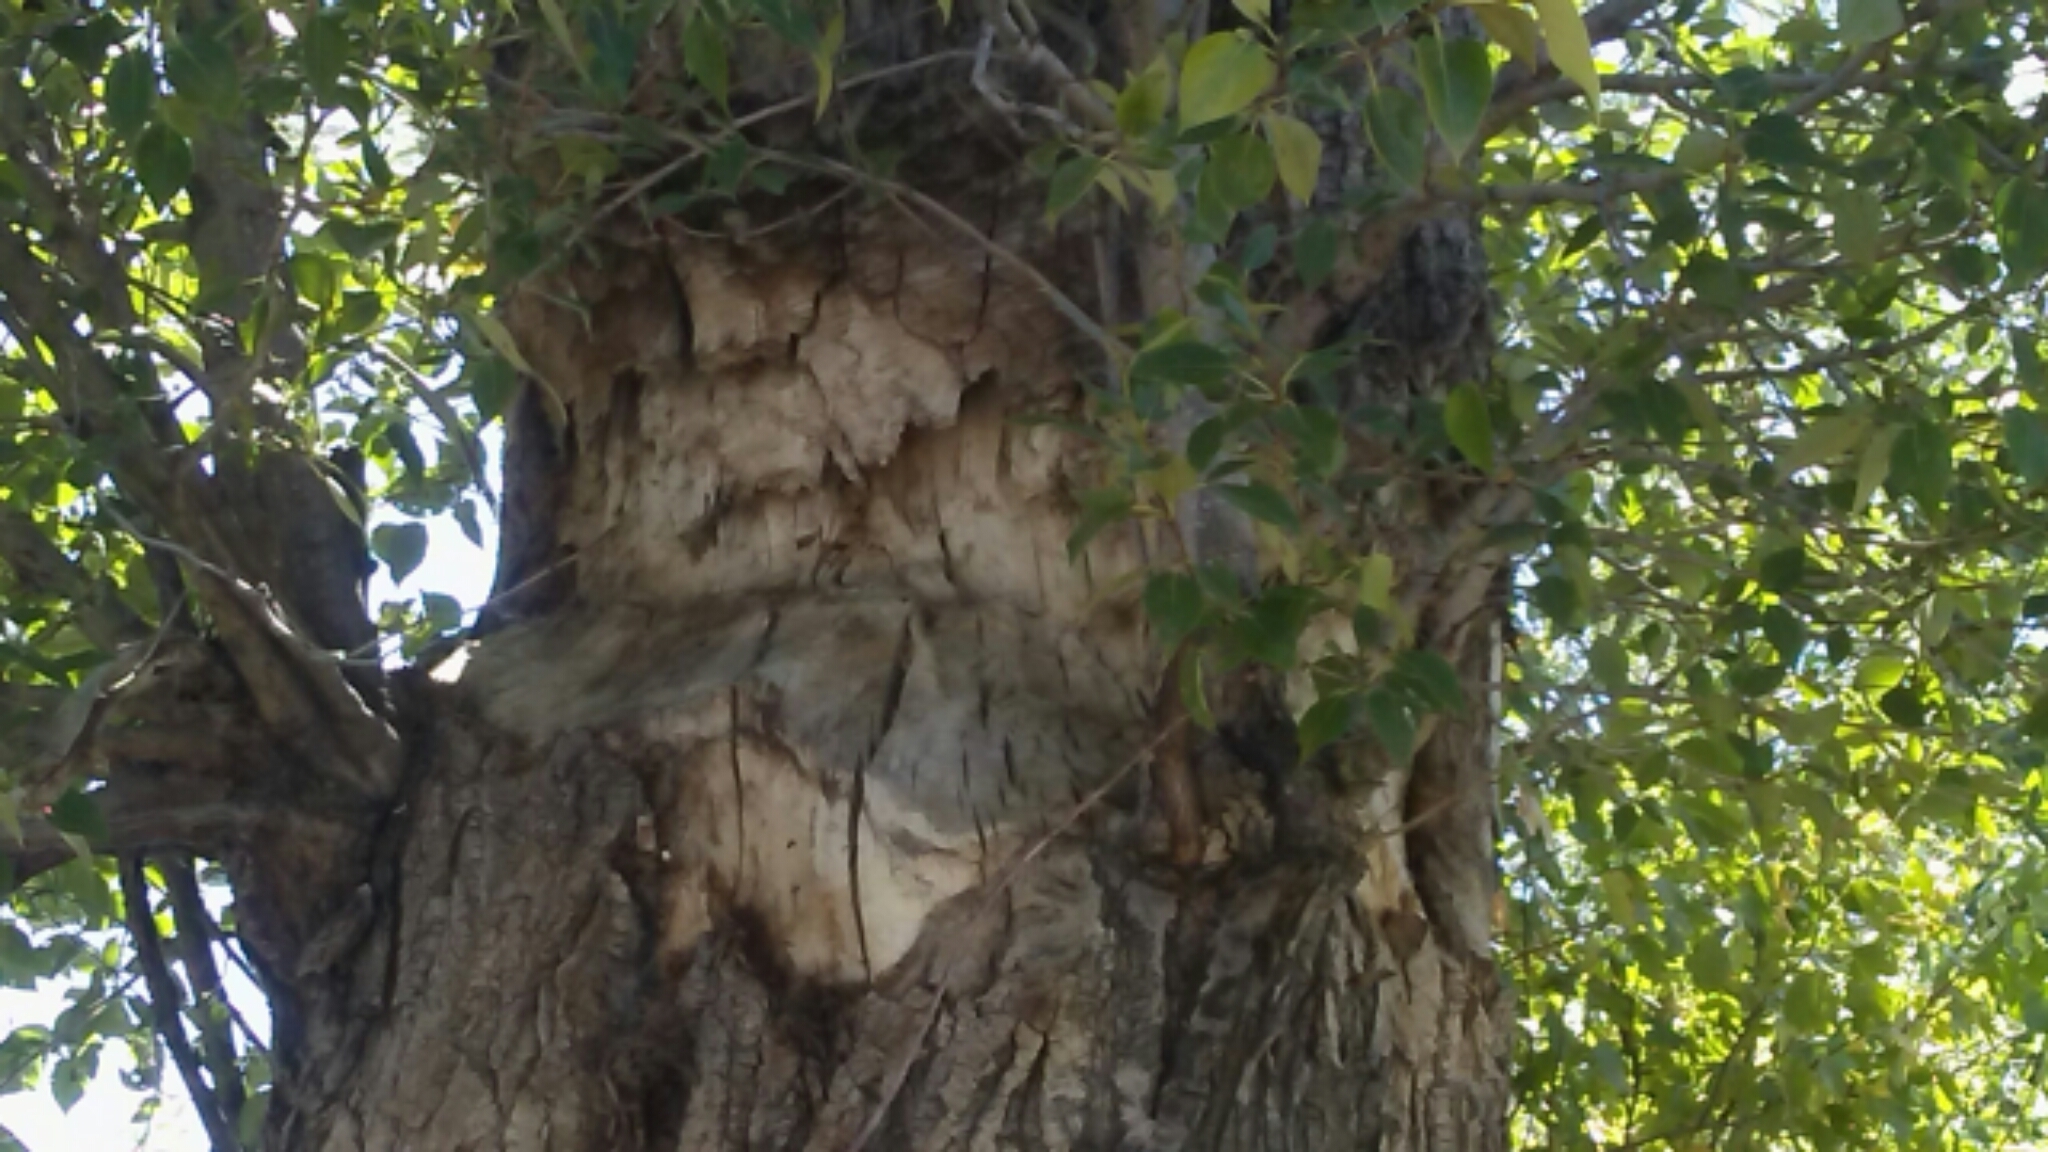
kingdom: Animalia
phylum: Chordata
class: Mammalia
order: Rodentia
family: Castoridae
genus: Castor
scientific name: Castor canadensis
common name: American beaver
